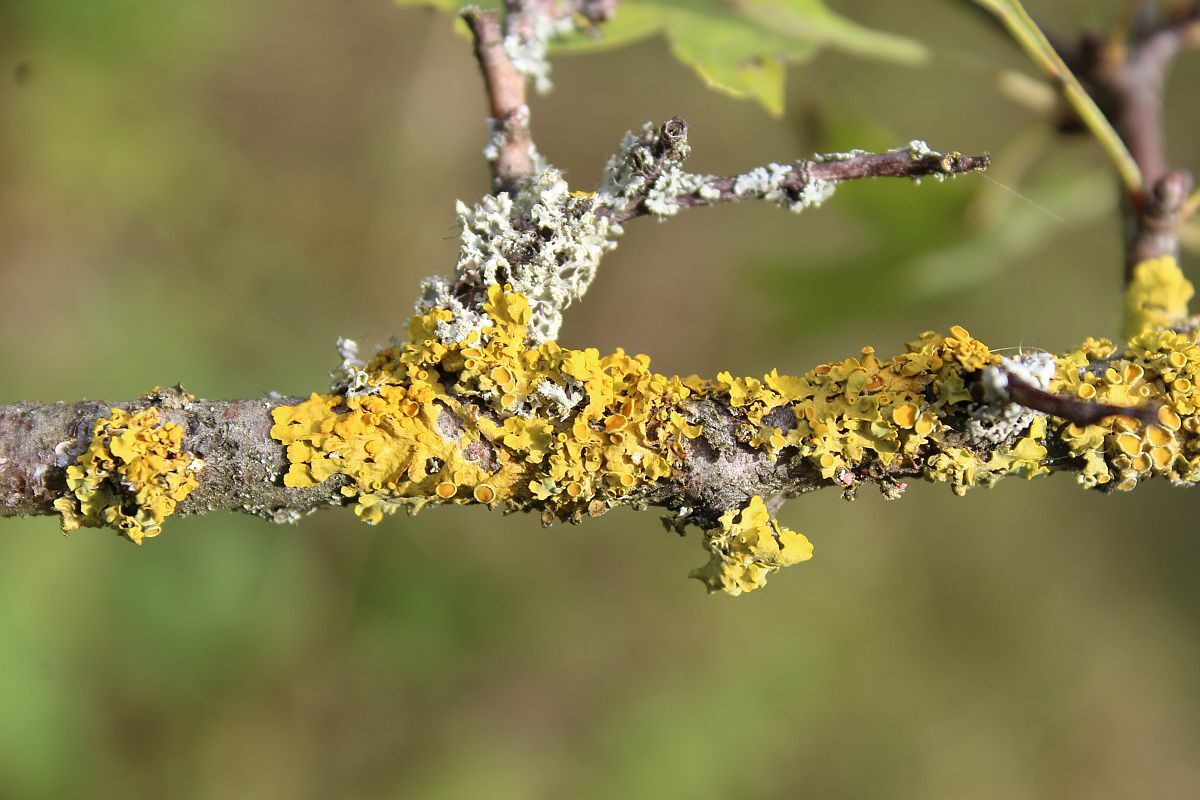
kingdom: Fungi
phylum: Ascomycota
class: Lecanoromycetes
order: Teloschistales
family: Teloschistaceae
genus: Xanthoria
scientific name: Xanthoria parietina
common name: Common orange lichen
